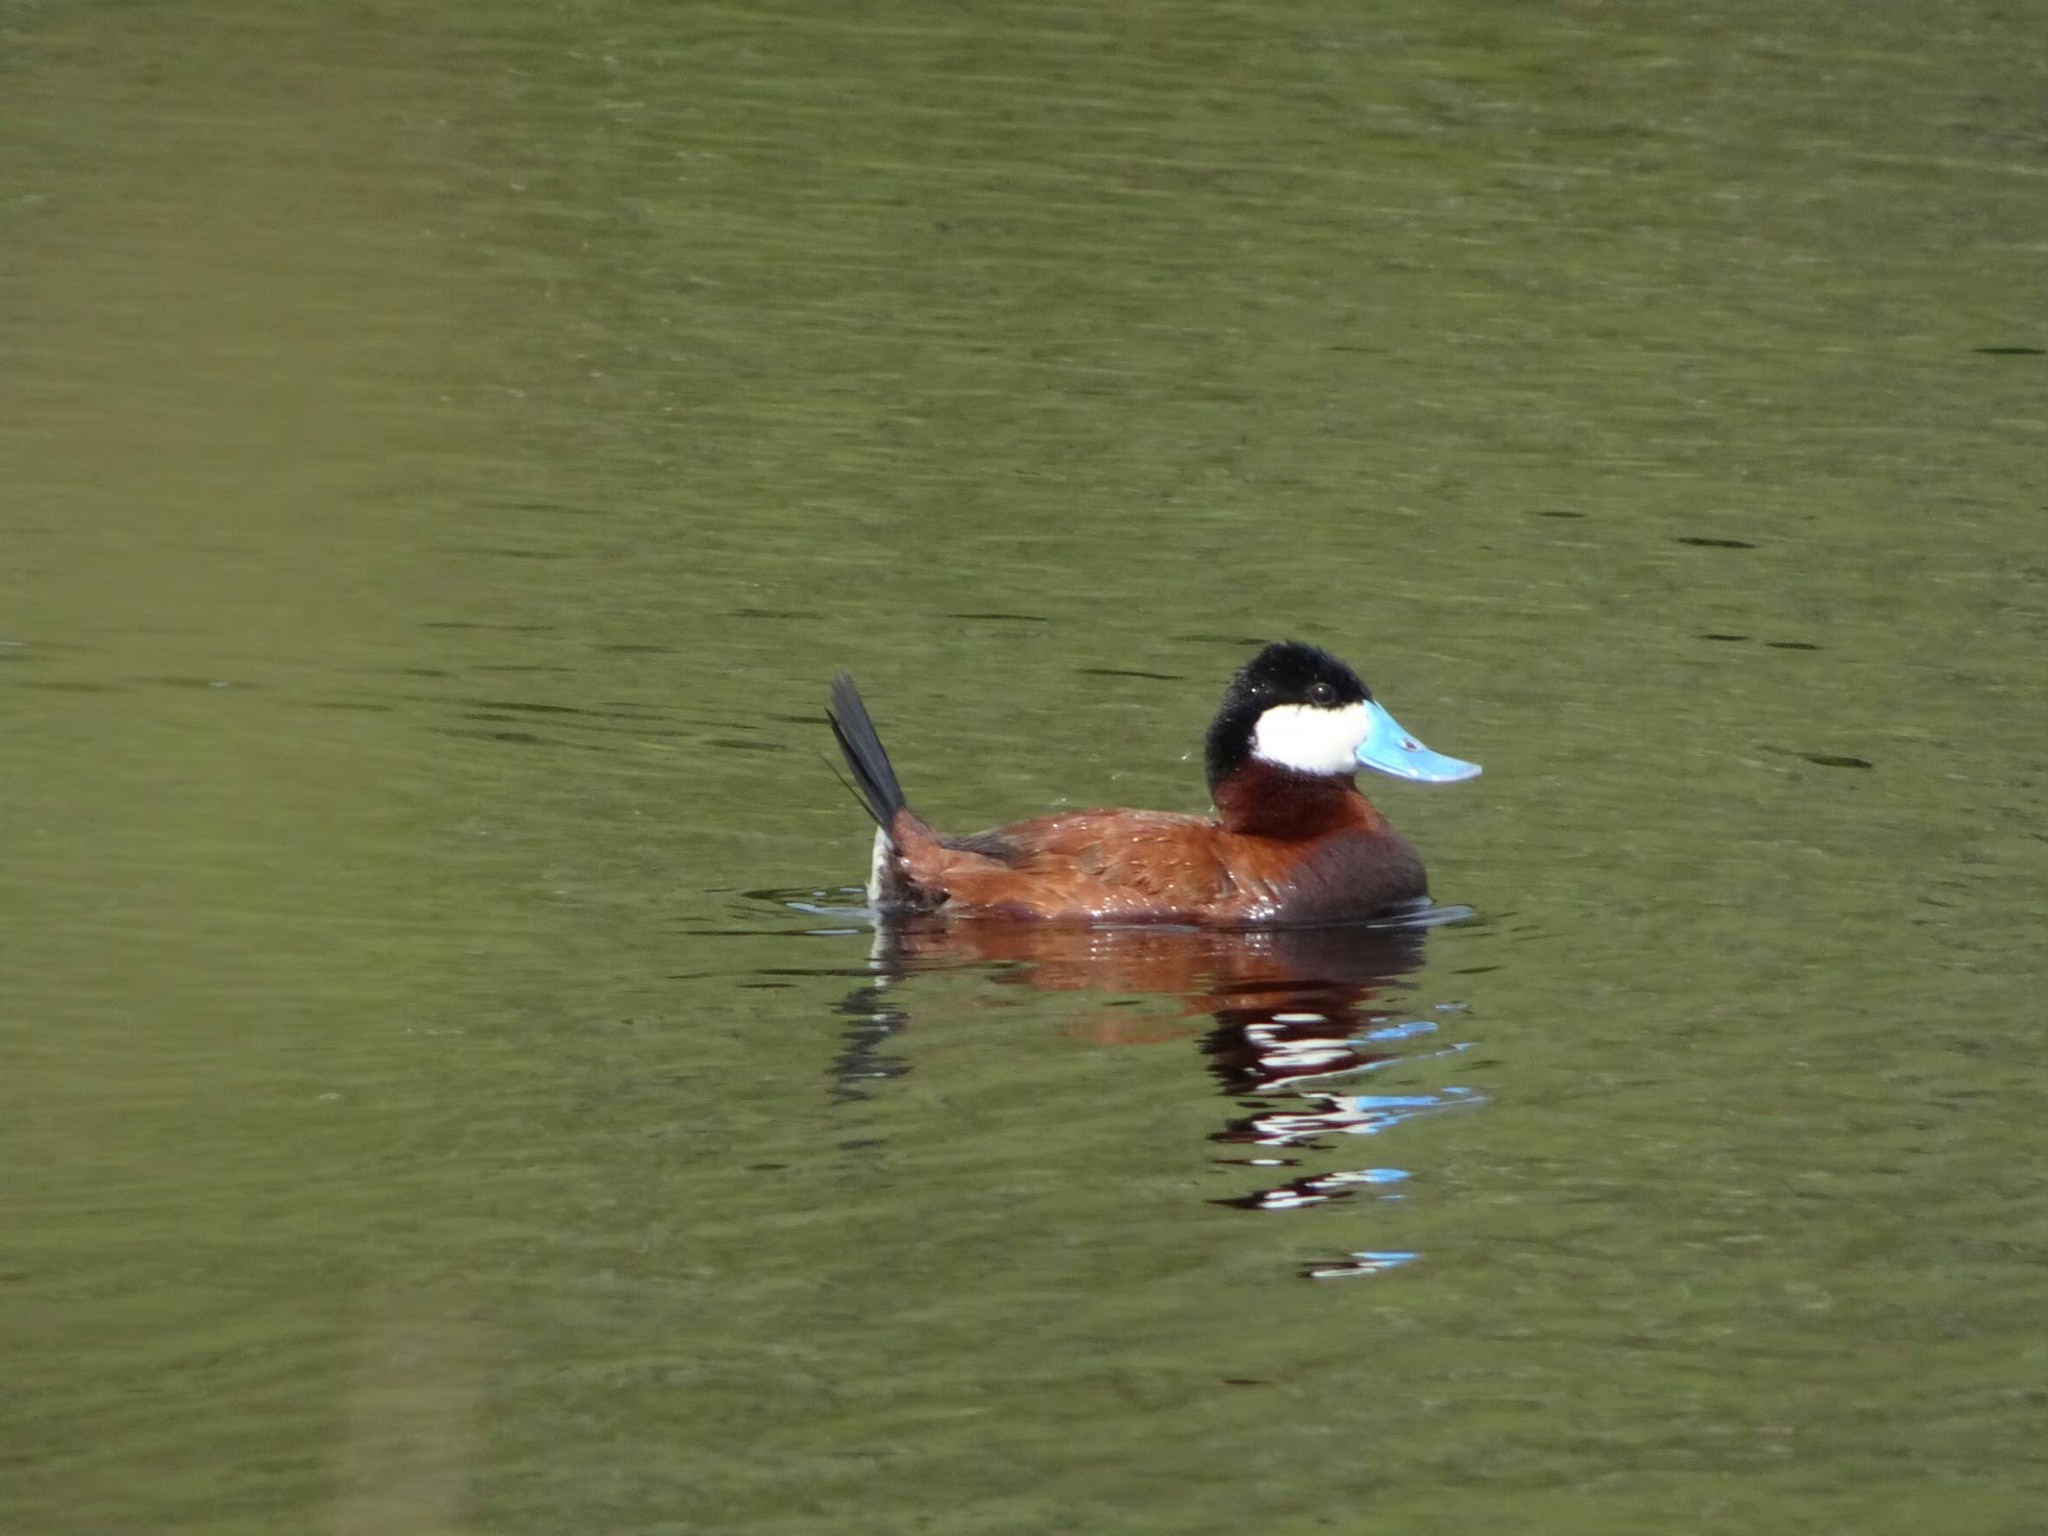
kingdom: Animalia
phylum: Chordata
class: Aves
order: Anseriformes
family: Anatidae
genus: Oxyura
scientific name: Oxyura jamaicensis
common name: Ruddy duck
